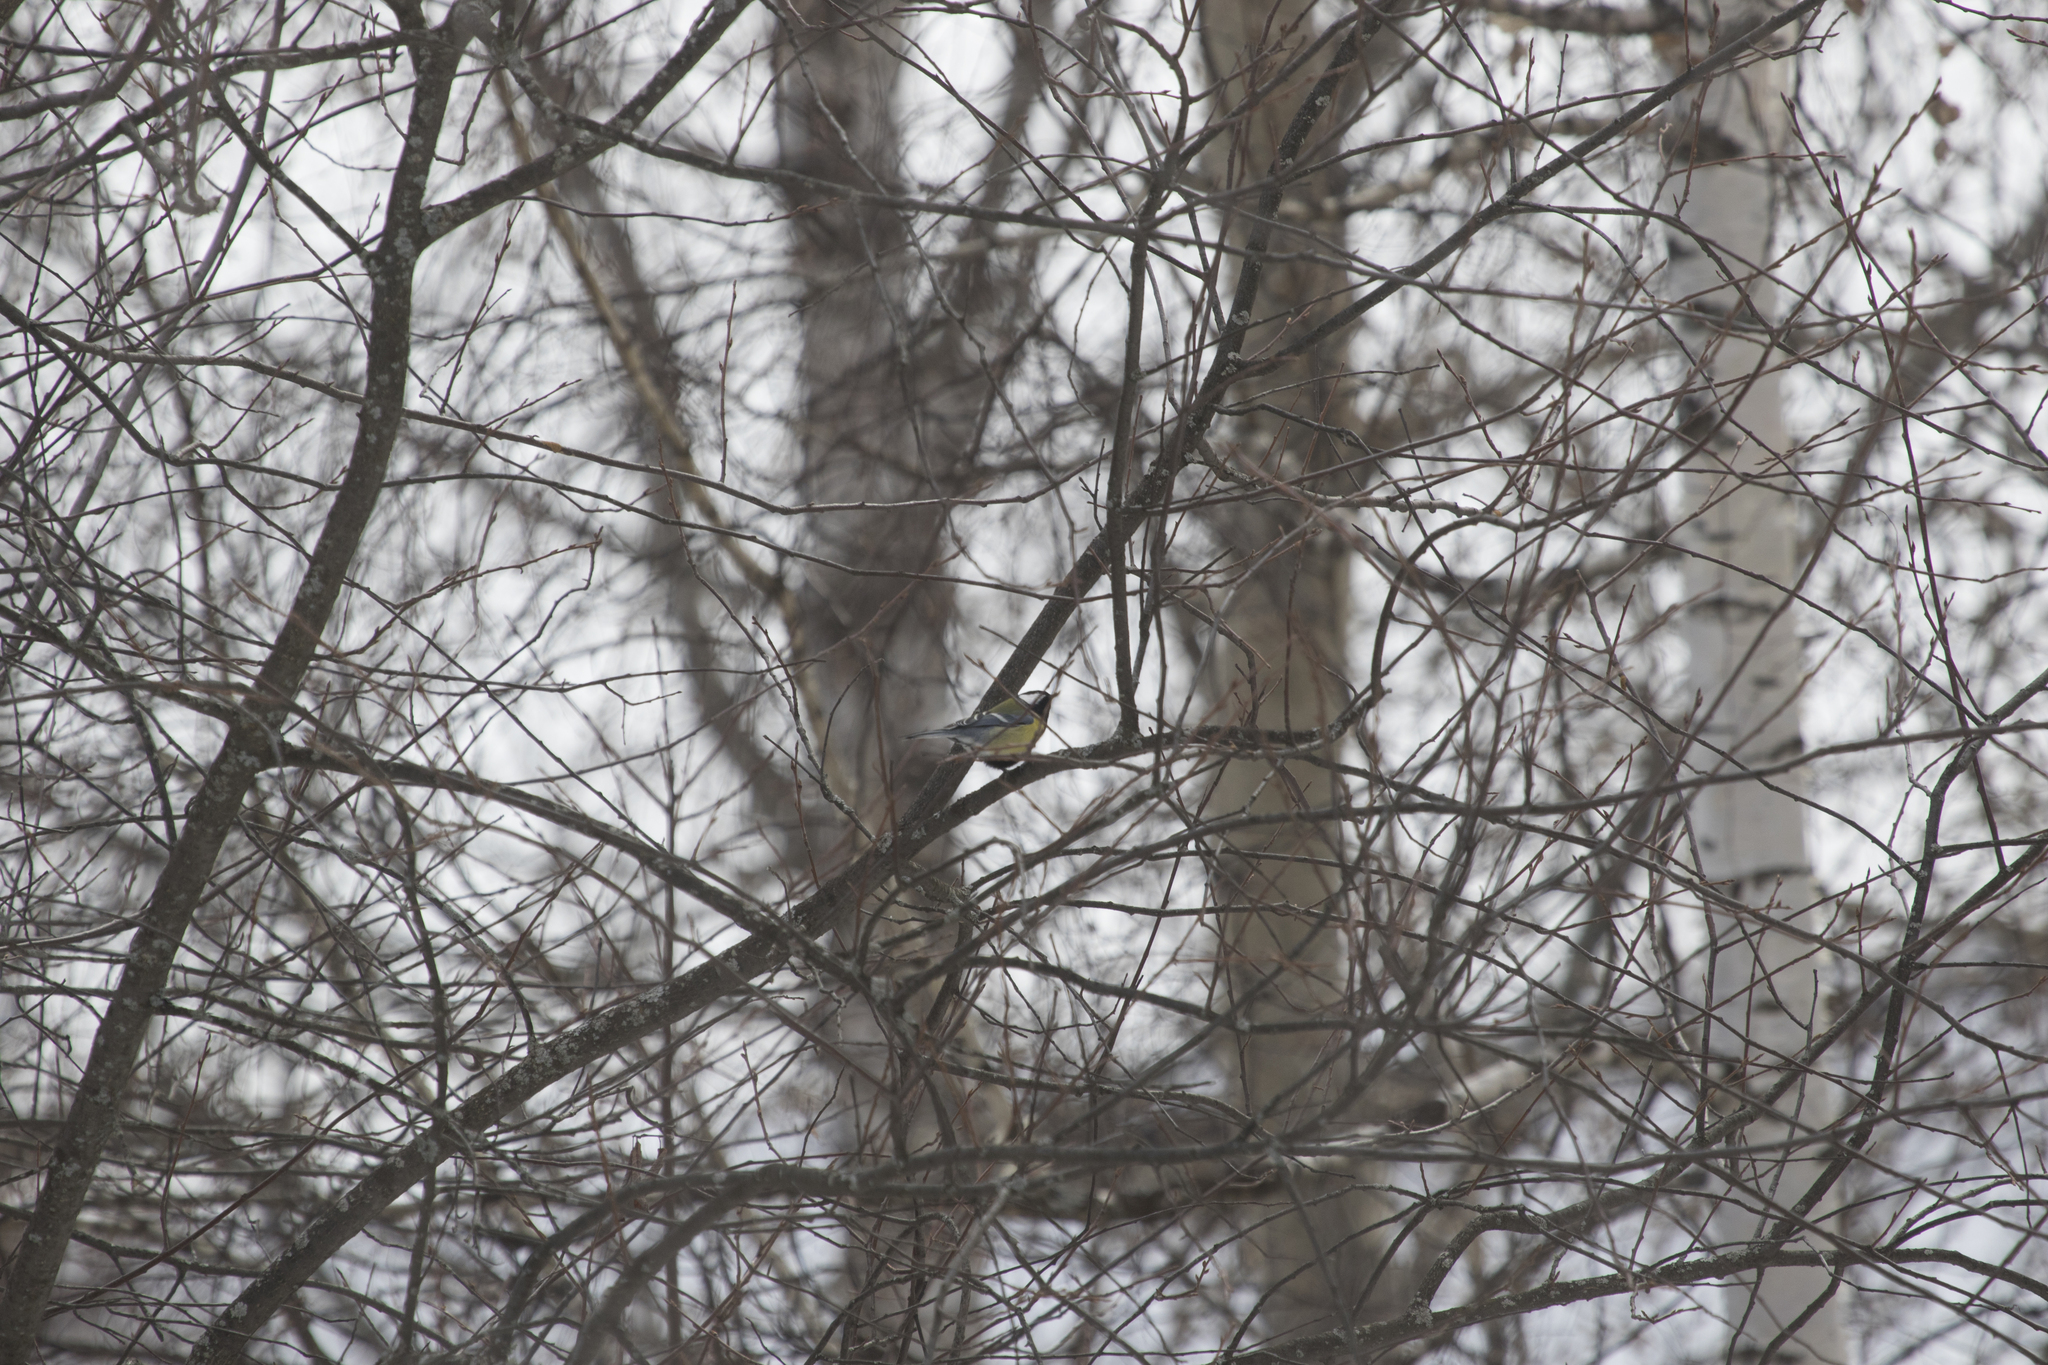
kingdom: Animalia
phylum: Chordata
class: Aves
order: Passeriformes
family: Paridae
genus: Parus
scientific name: Parus major
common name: Great tit
